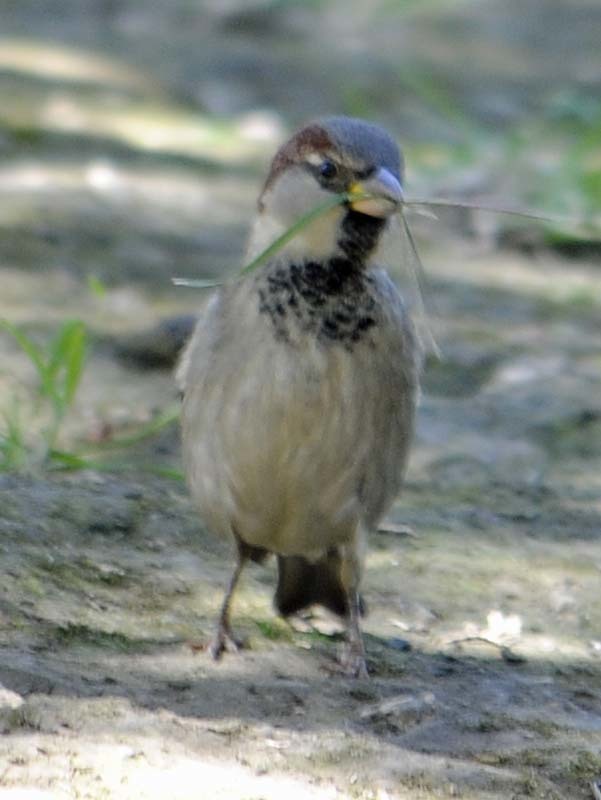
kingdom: Animalia
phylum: Chordata
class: Aves
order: Passeriformes
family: Passeridae
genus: Passer
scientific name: Passer domesticus
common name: House sparrow
